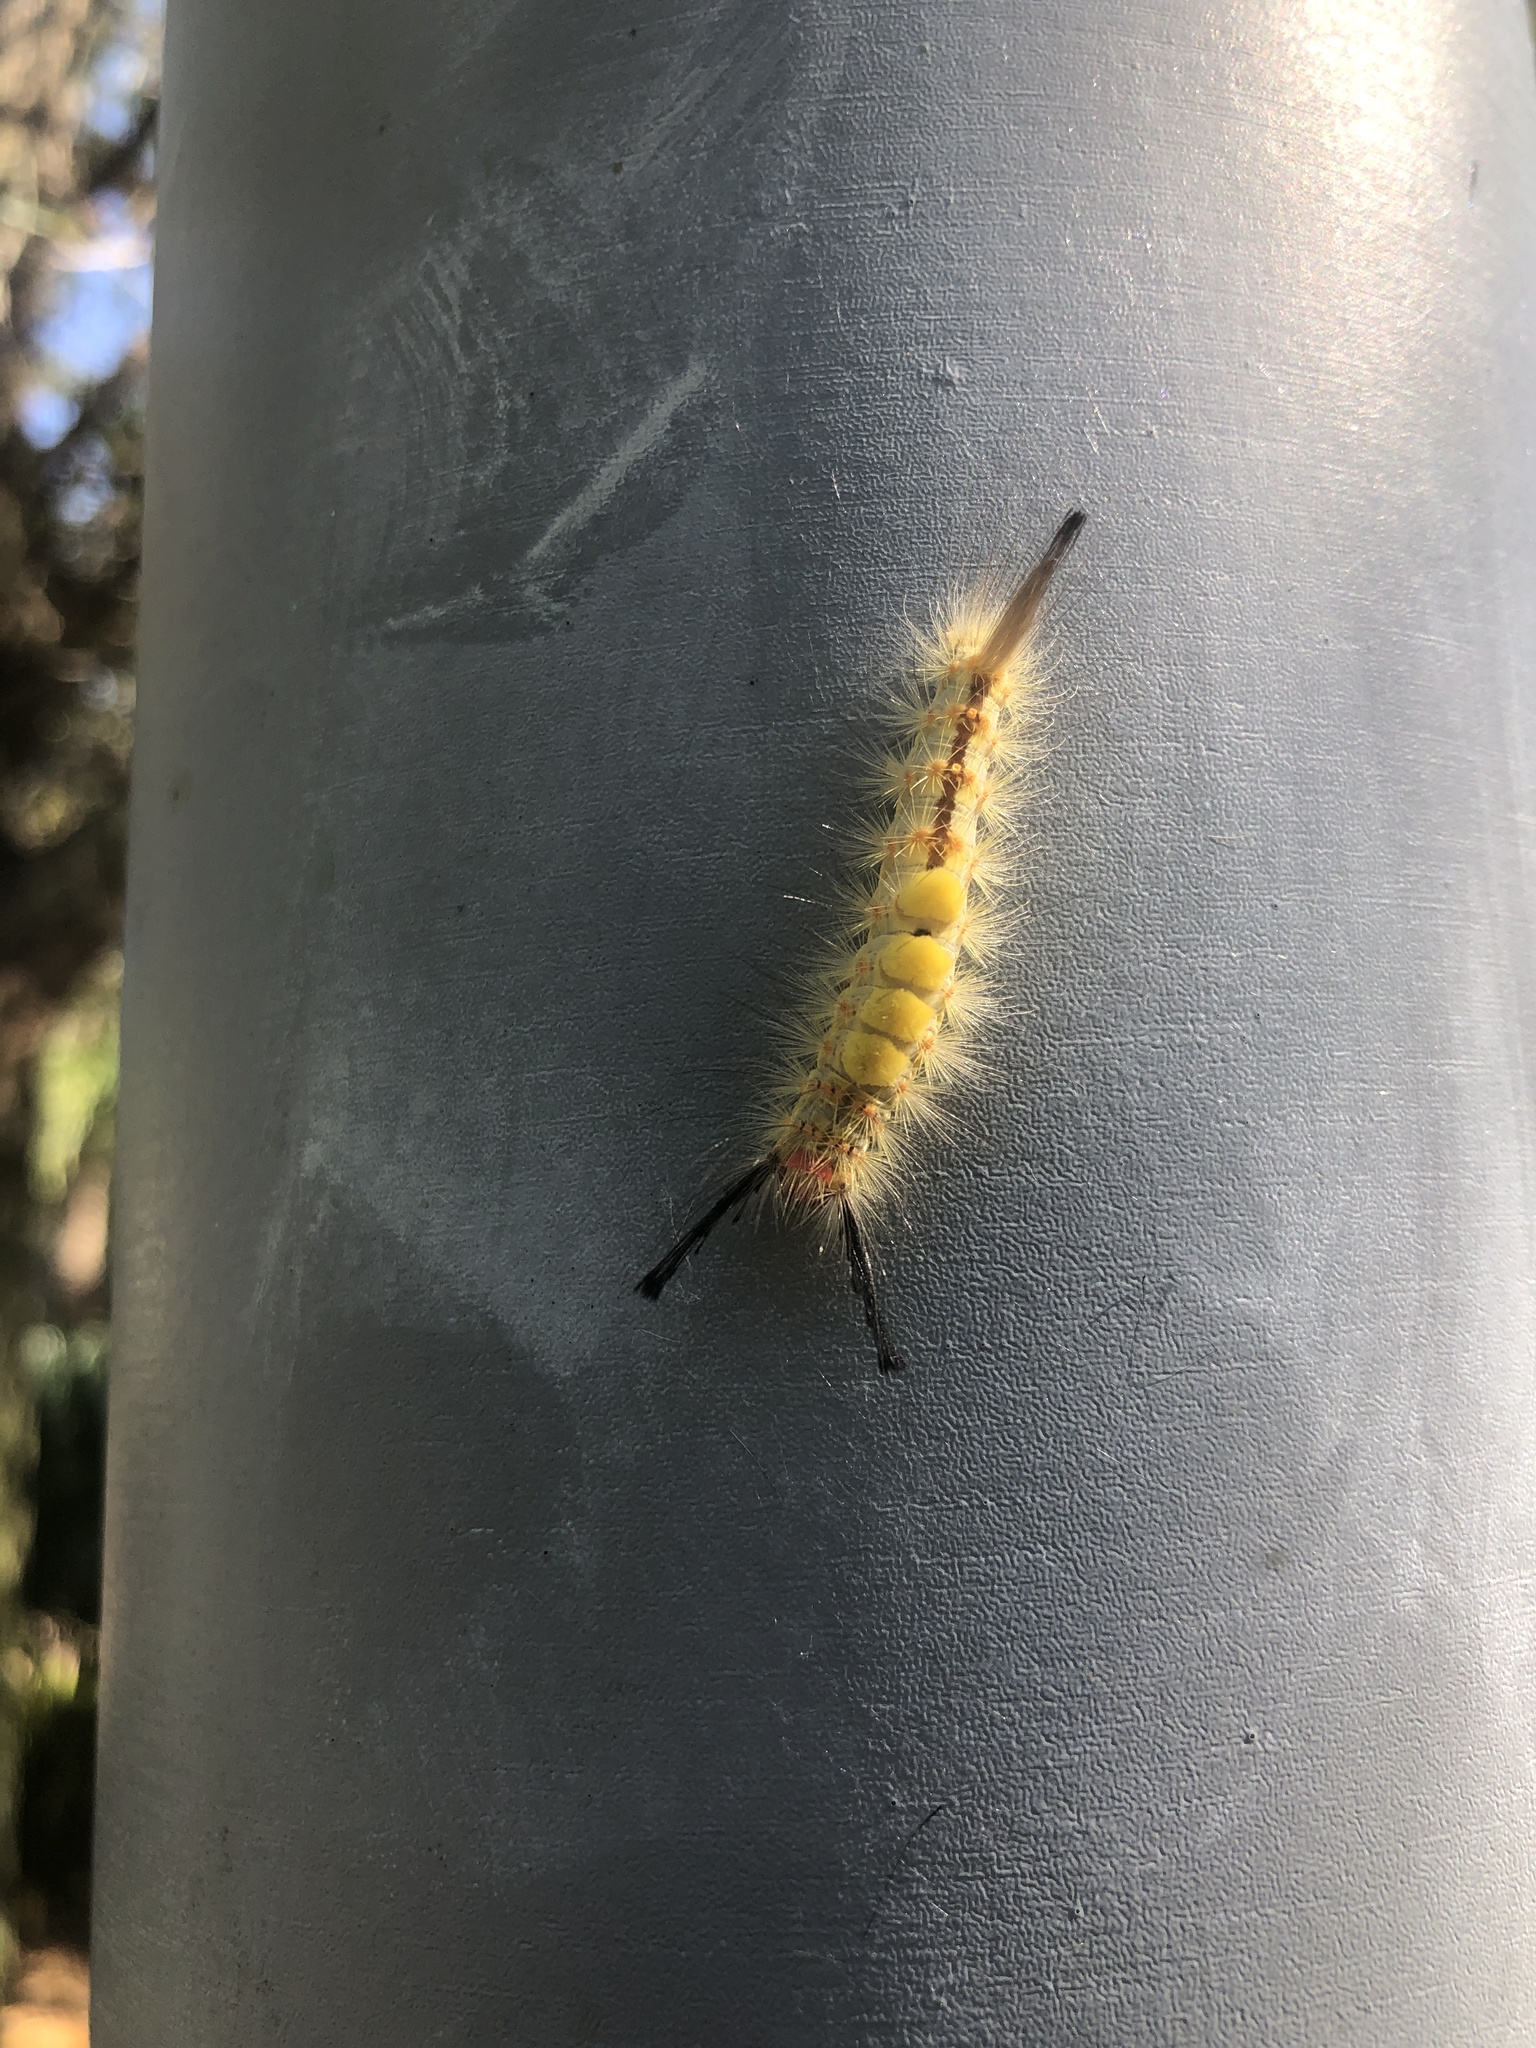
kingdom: Animalia
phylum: Arthropoda
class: Insecta
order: Lepidoptera
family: Erebidae
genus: Orgyia
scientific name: Orgyia detrita
